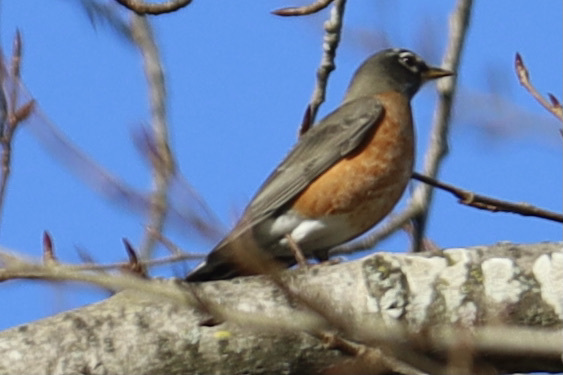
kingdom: Animalia
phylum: Chordata
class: Aves
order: Passeriformes
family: Turdidae
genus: Turdus
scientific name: Turdus migratorius
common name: American robin
